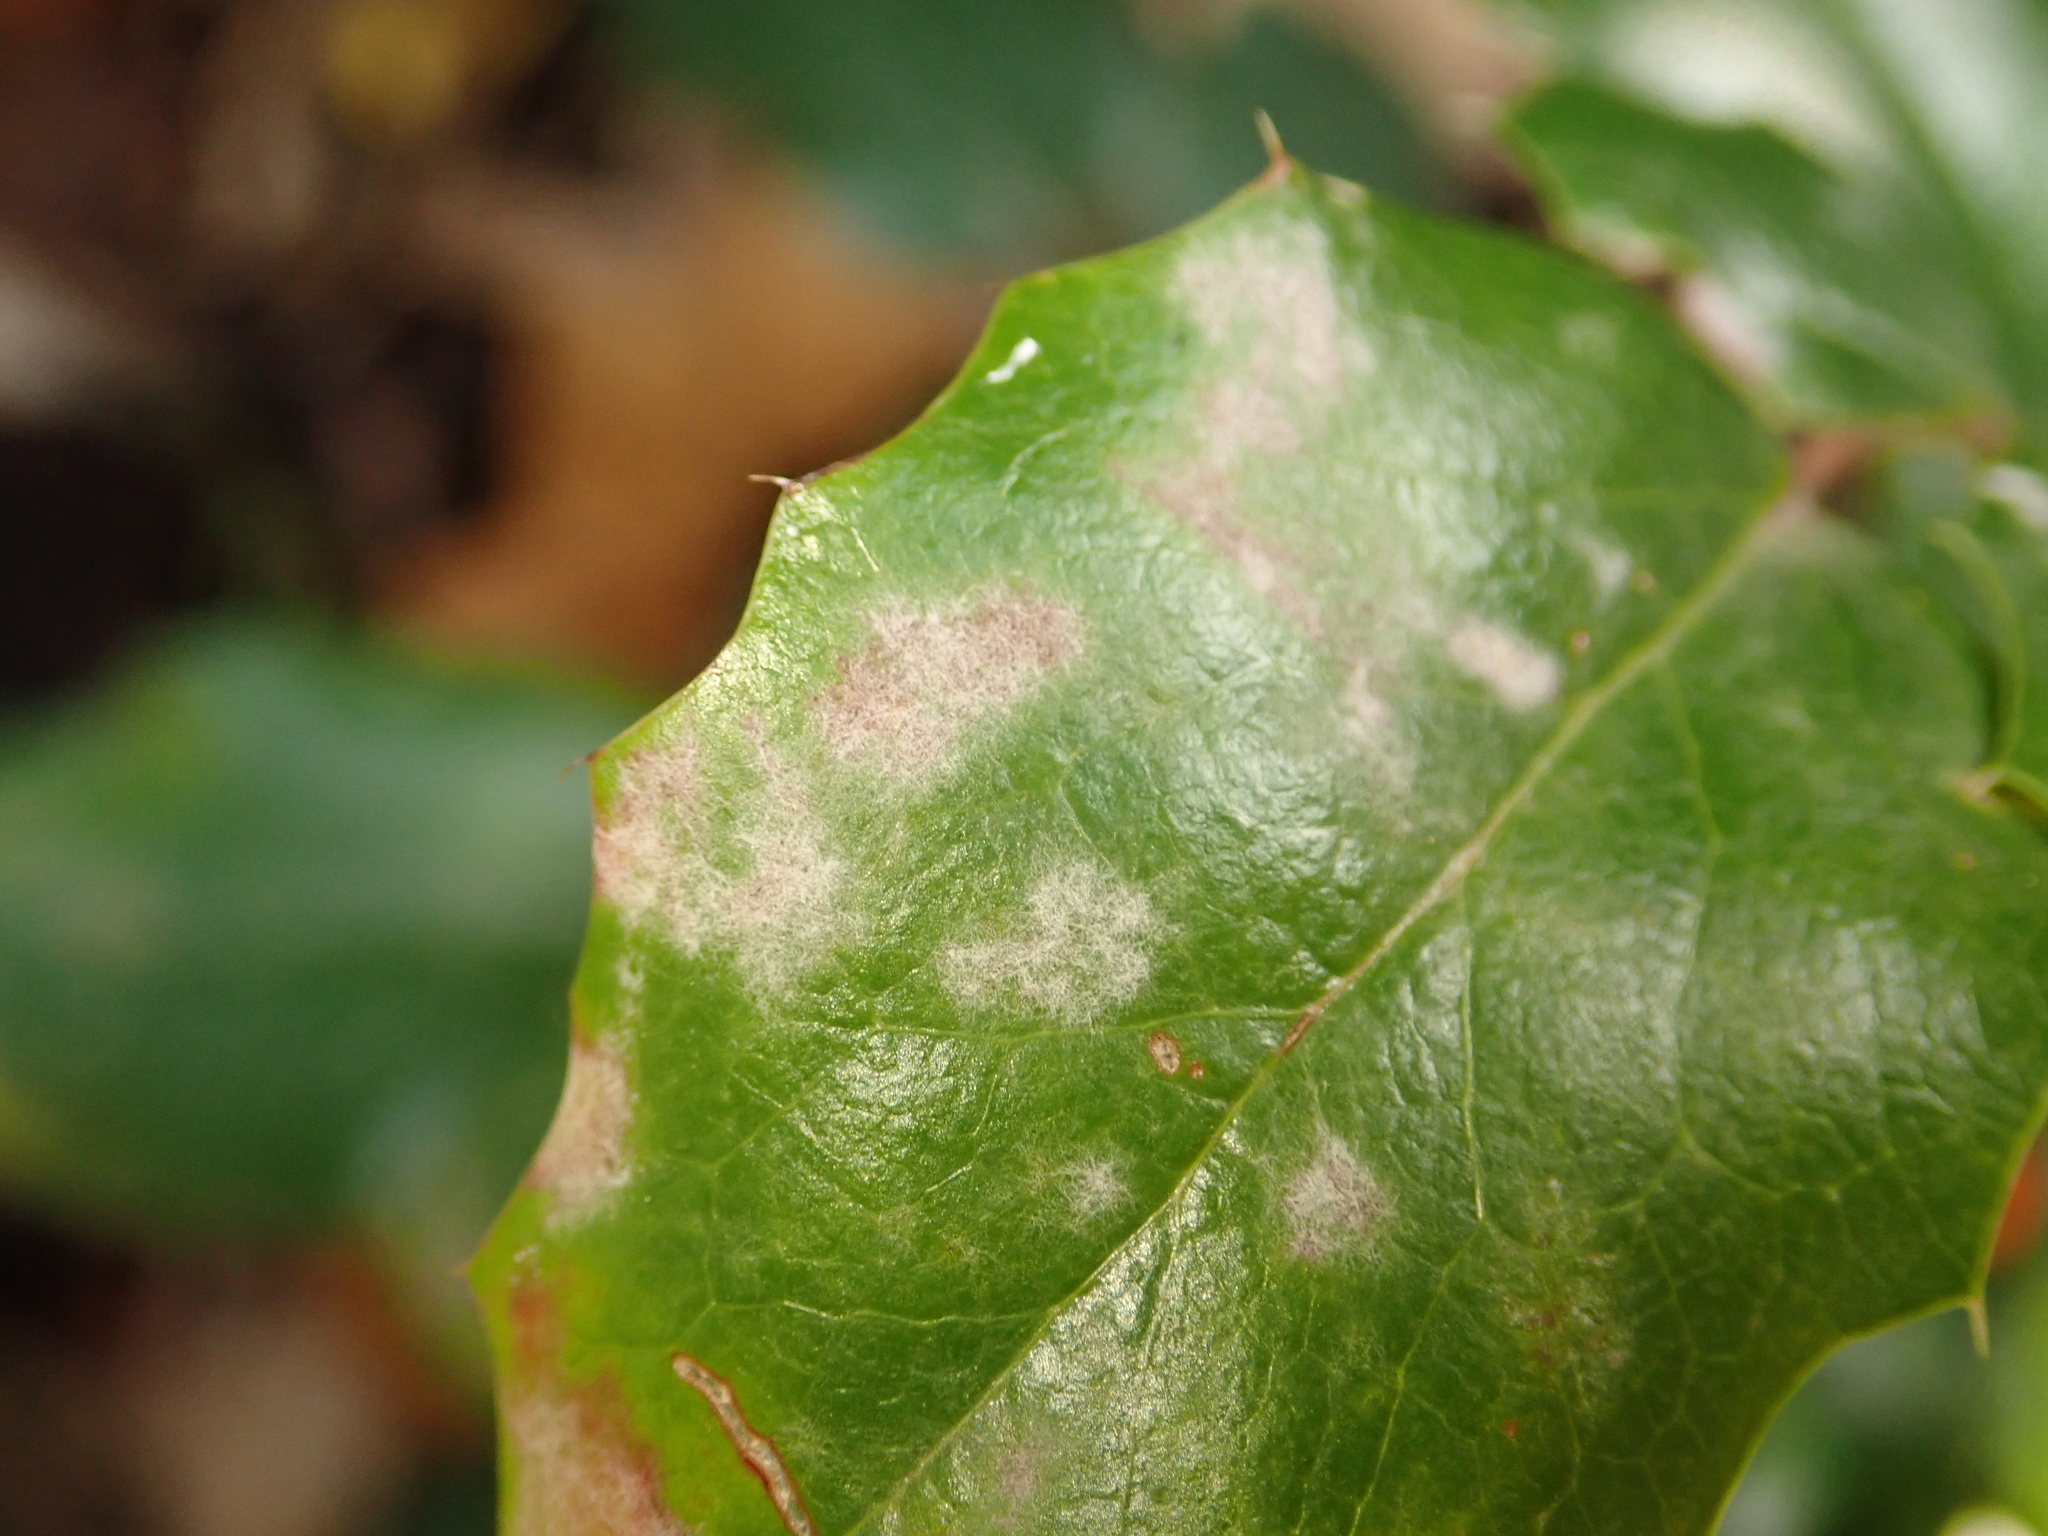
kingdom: Fungi
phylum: Ascomycota
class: Leotiomycetes
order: Helotiales
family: Erysiphaceae
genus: Erysiphe
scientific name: Erysiphe berberidis
